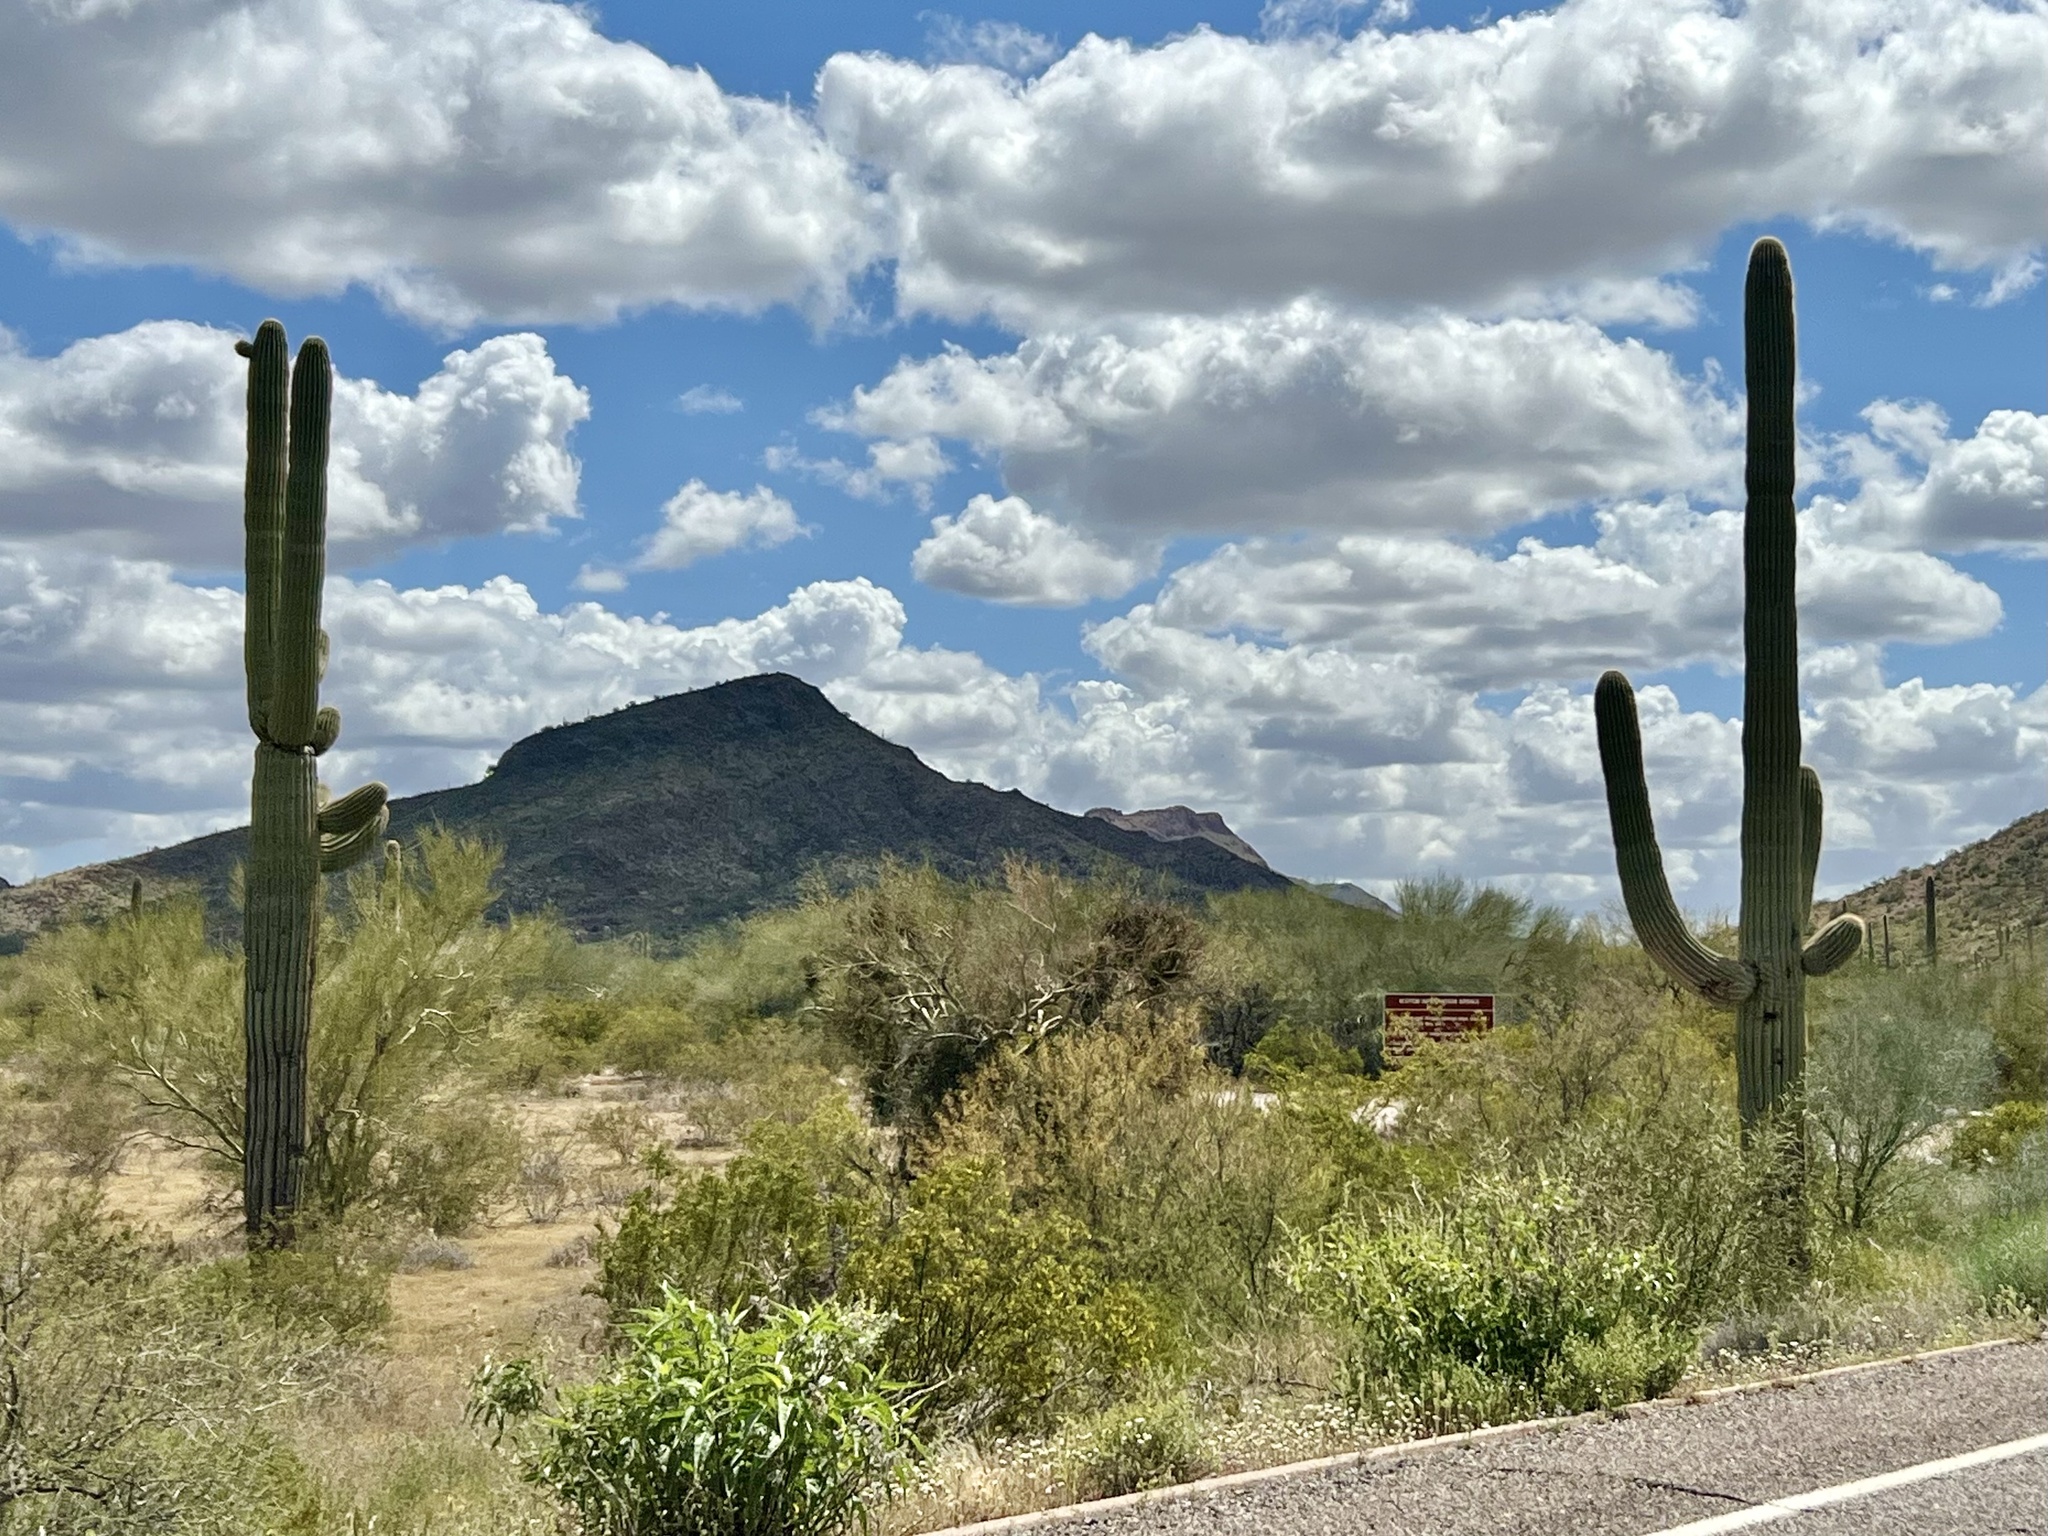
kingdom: Plantae
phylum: Tracheophyta
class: Magnoliopsida
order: Caryophyllales
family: Cactaceae
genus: Carnegiea
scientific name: Carnegiea gigantea
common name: Saguaro
